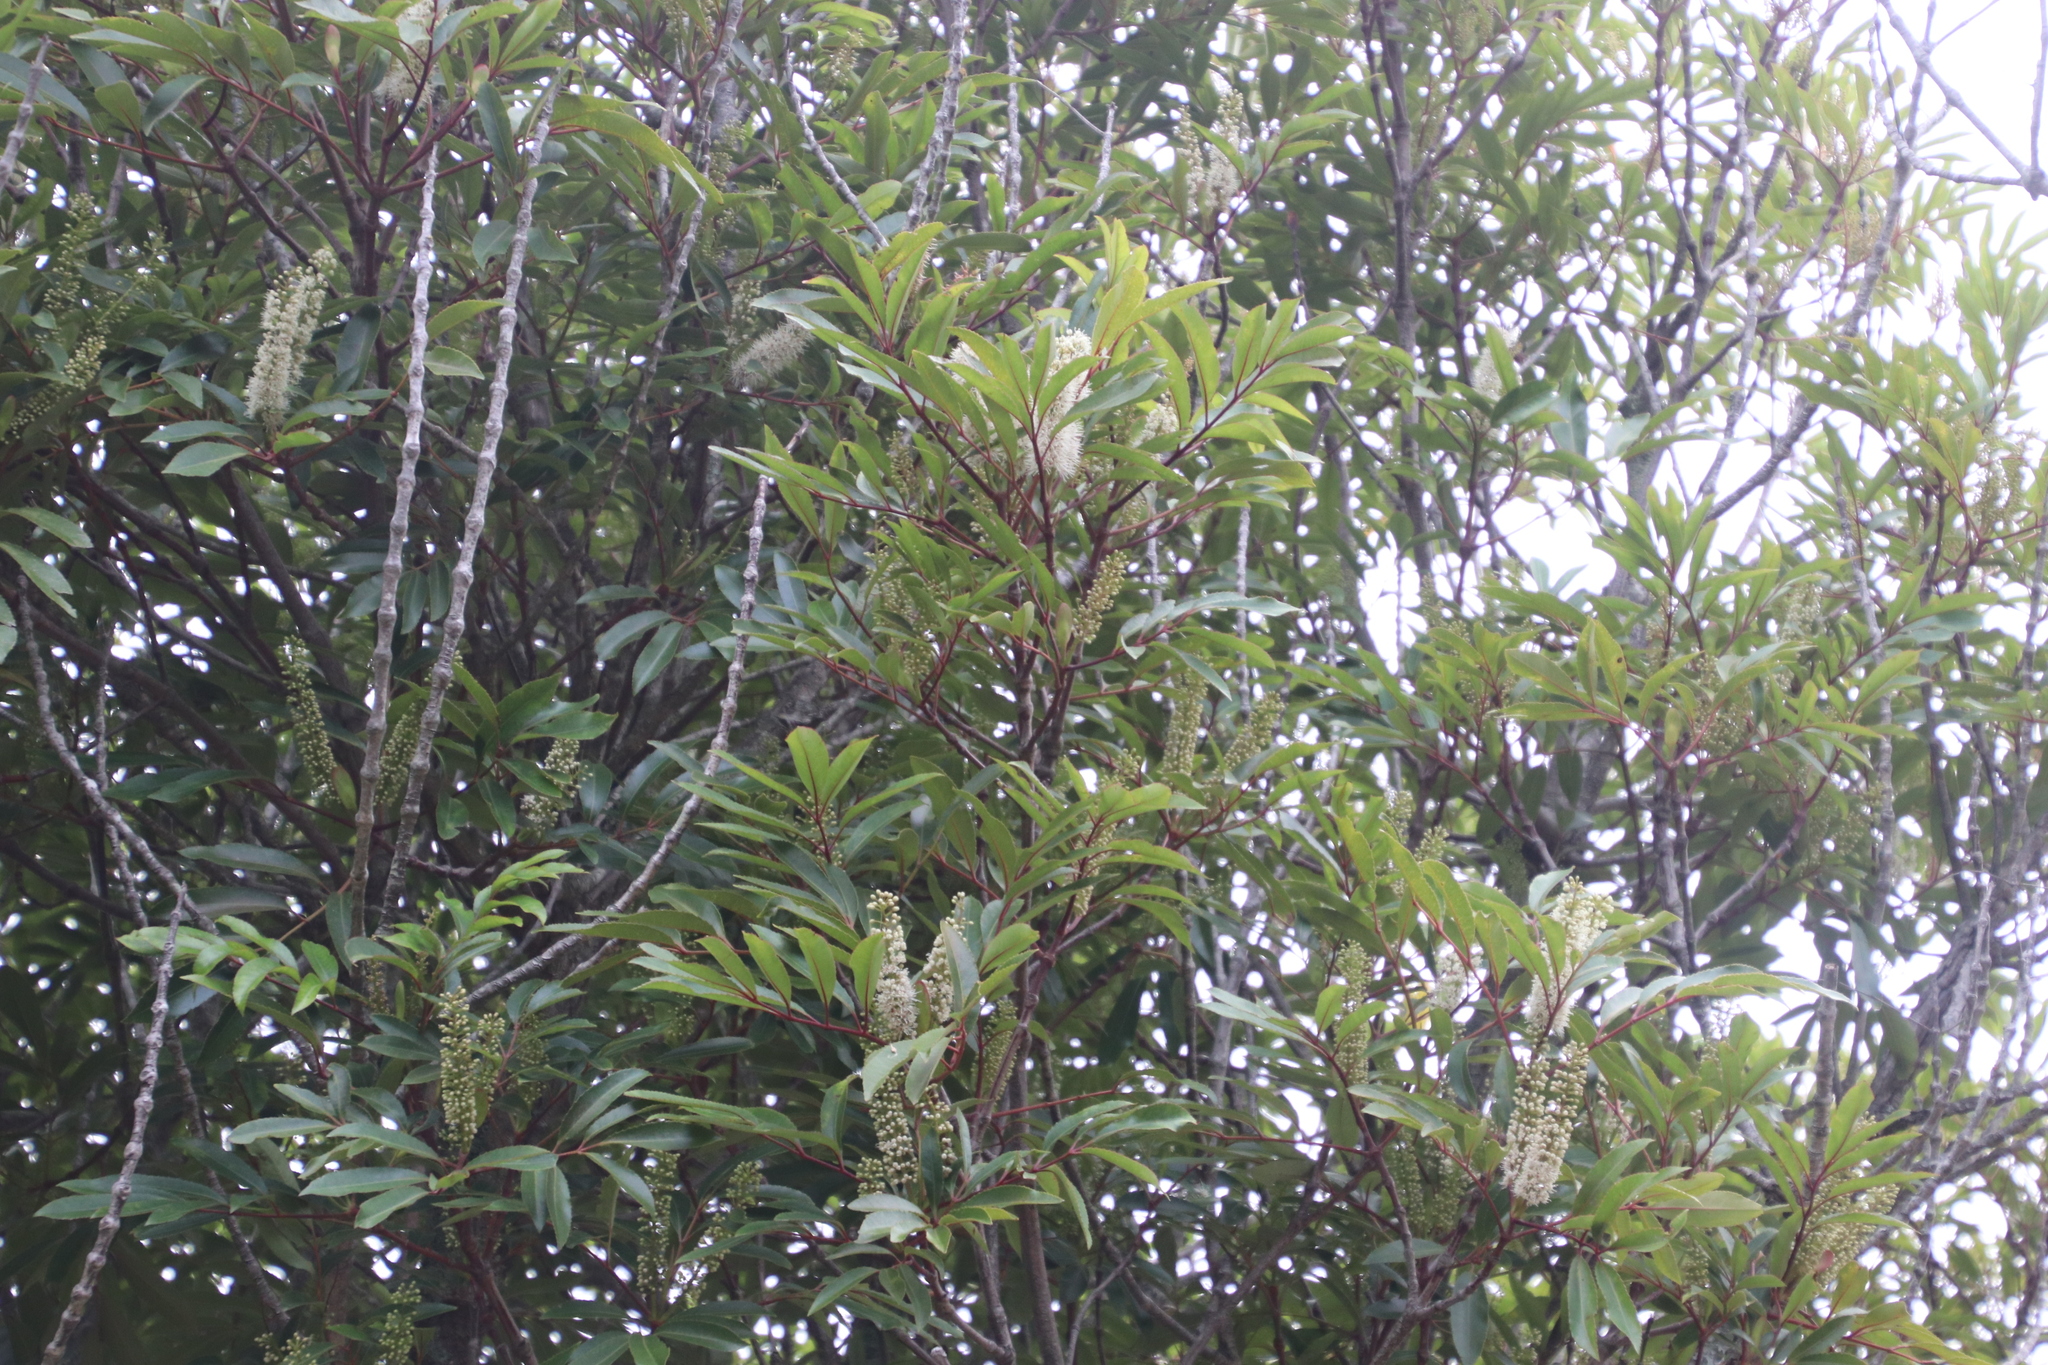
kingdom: Plantae
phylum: Tracheophyta
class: Magnoliopsida
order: Oxalidales
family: Cunoniaceae
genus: Cunonia
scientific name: Cunonia capensis
